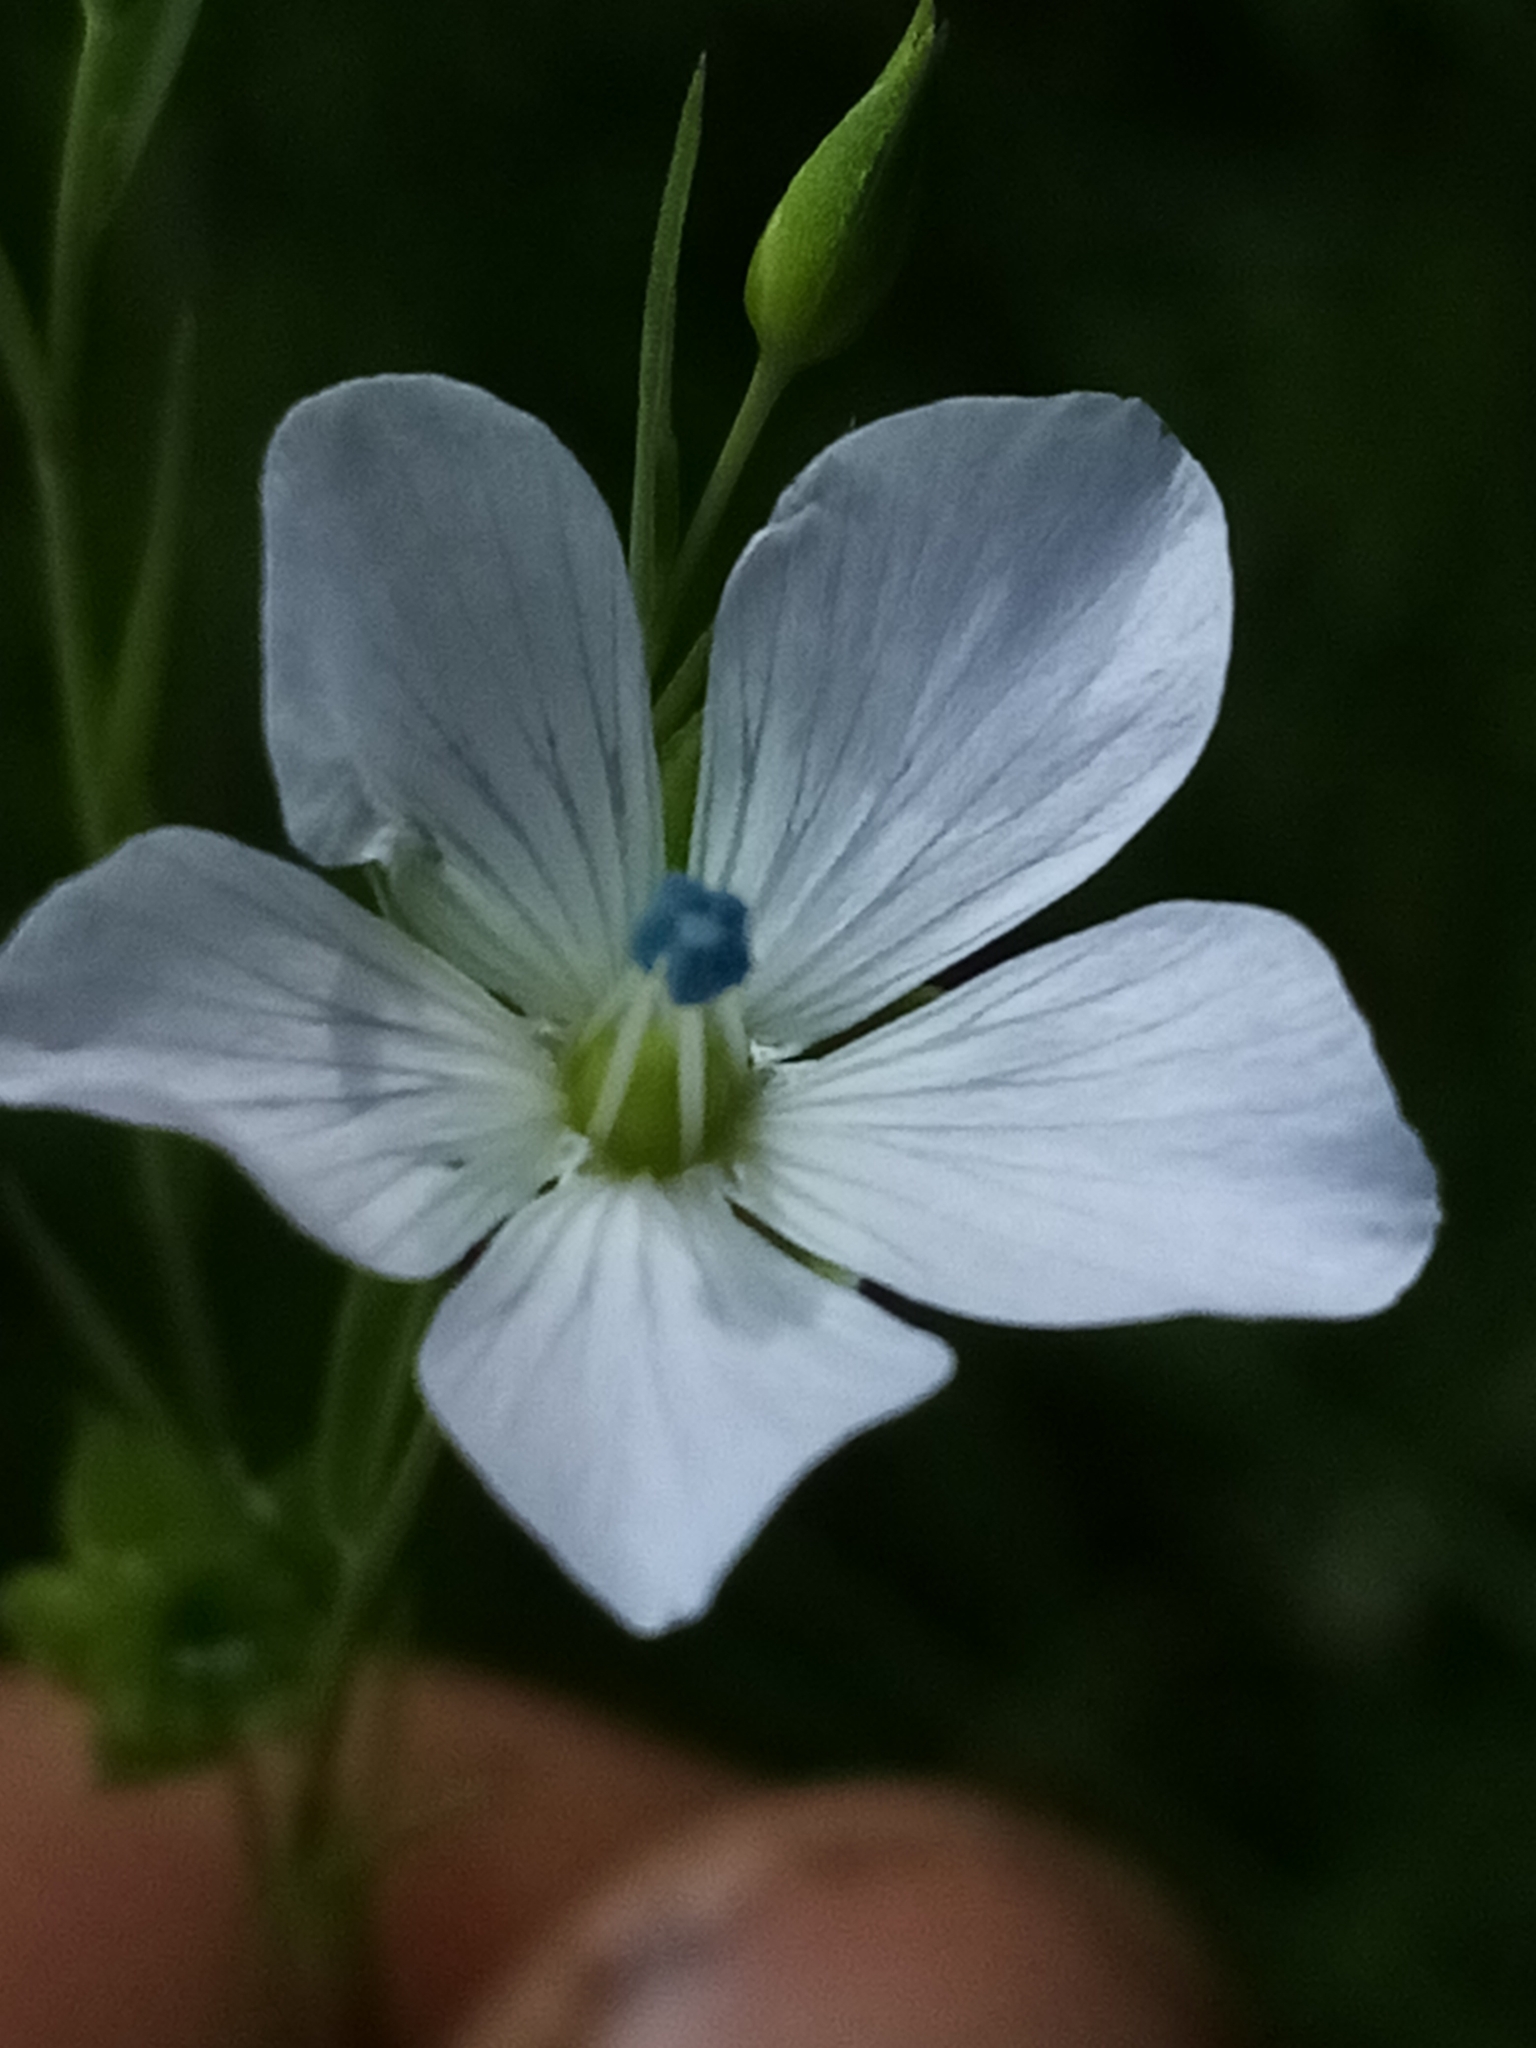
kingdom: Plantae
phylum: Tracheophyta
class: Magnoliopsida
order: Malpighiales
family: Linaceae
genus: Linum
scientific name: Linum bienne
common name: Pale flax
